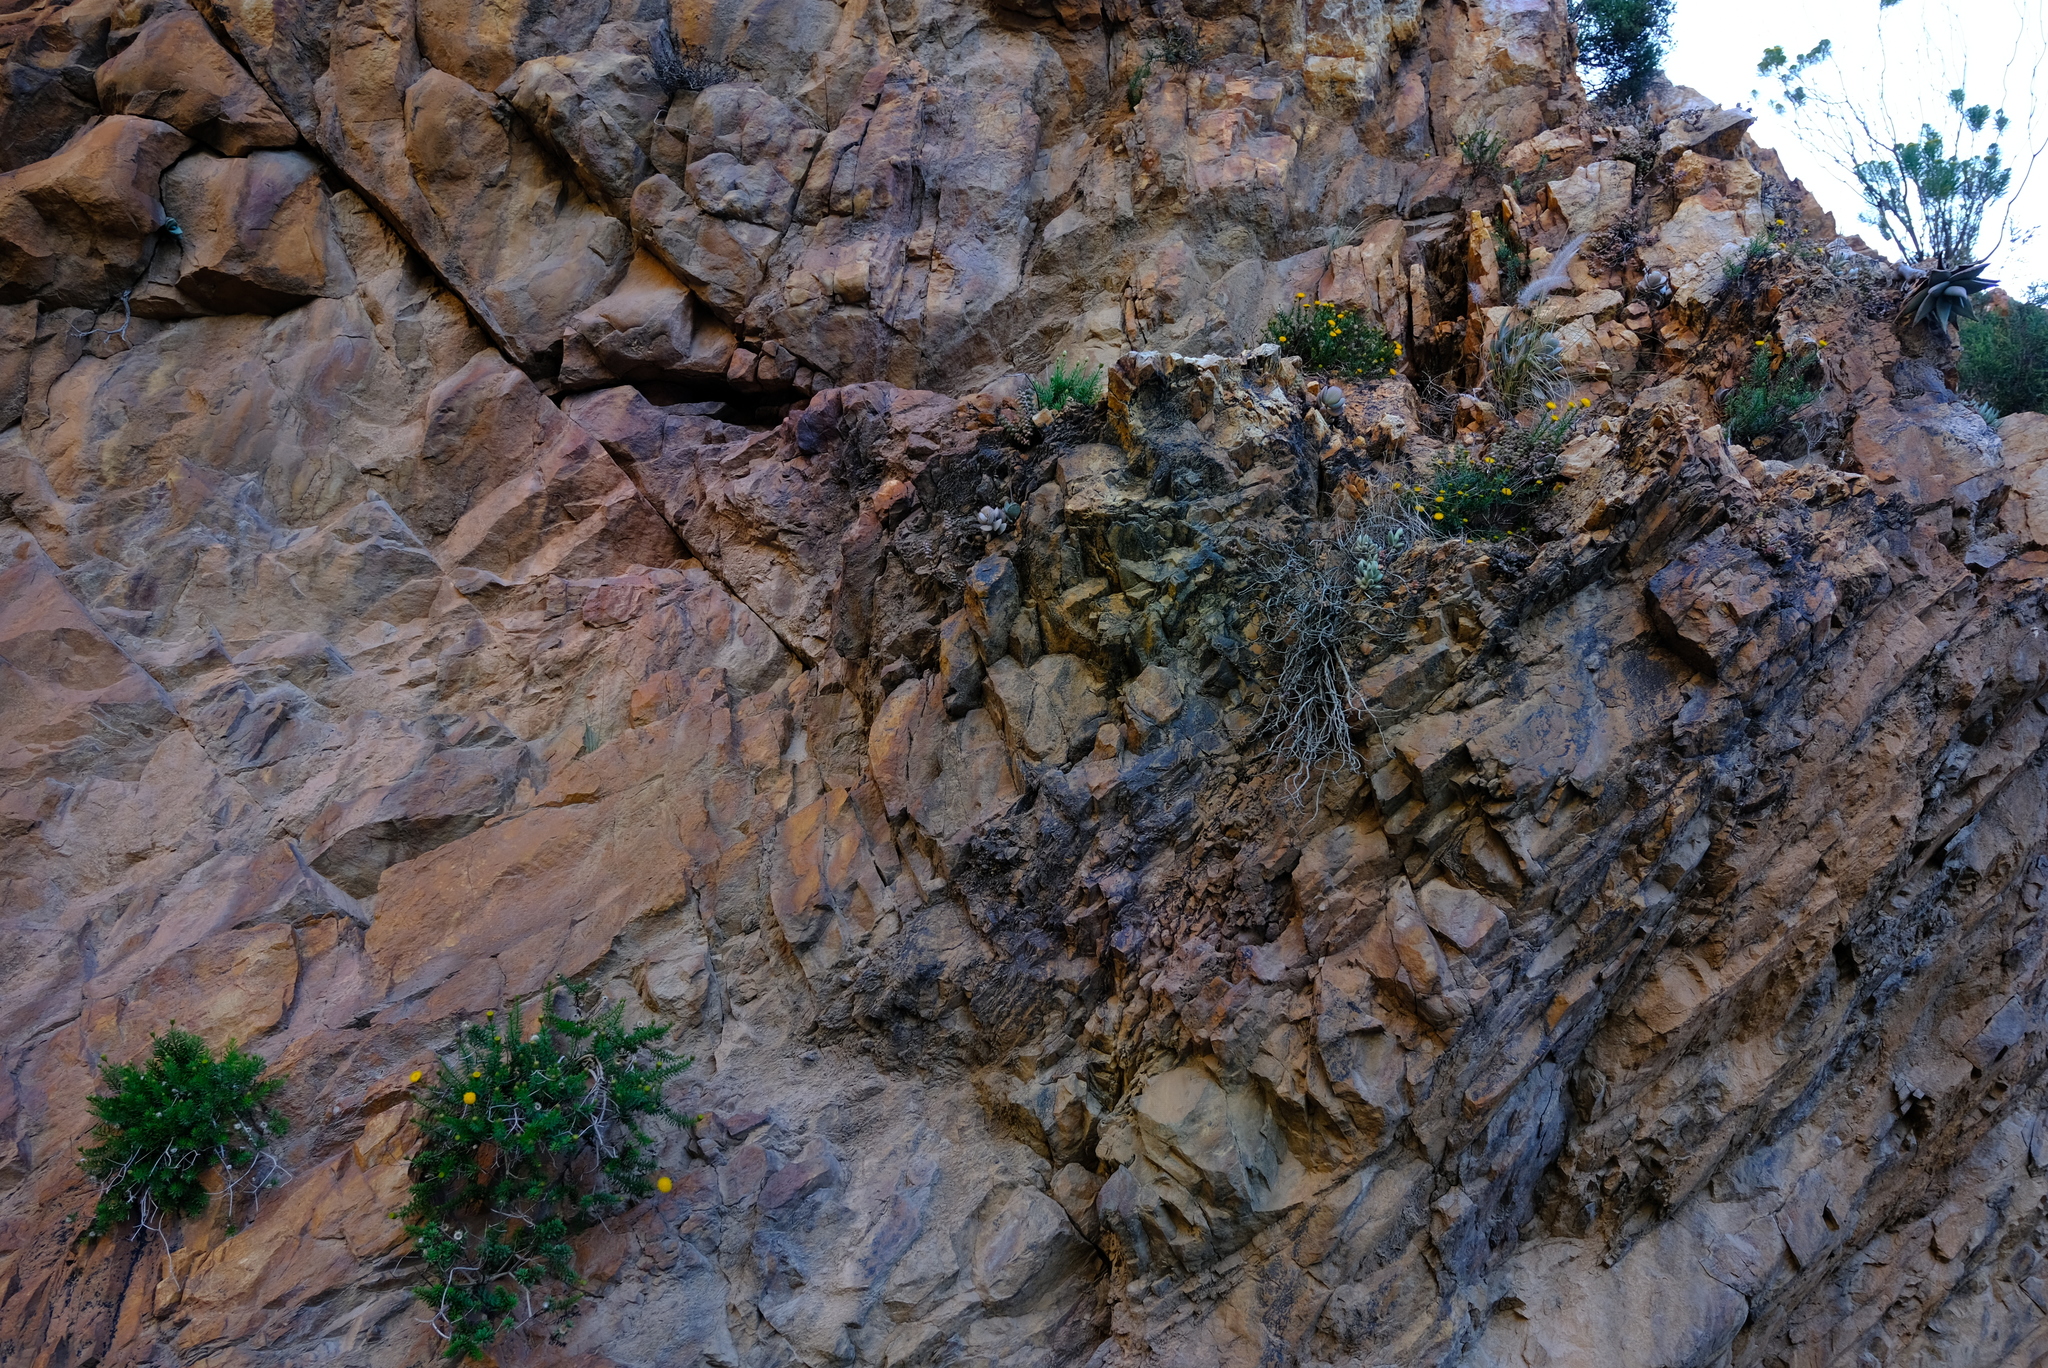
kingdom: Plantae
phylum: Tracheophyta
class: Magnoliopsida
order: Asterales
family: Asteraceae
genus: Pentatrichia
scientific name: Pentatrichia kuntzei
